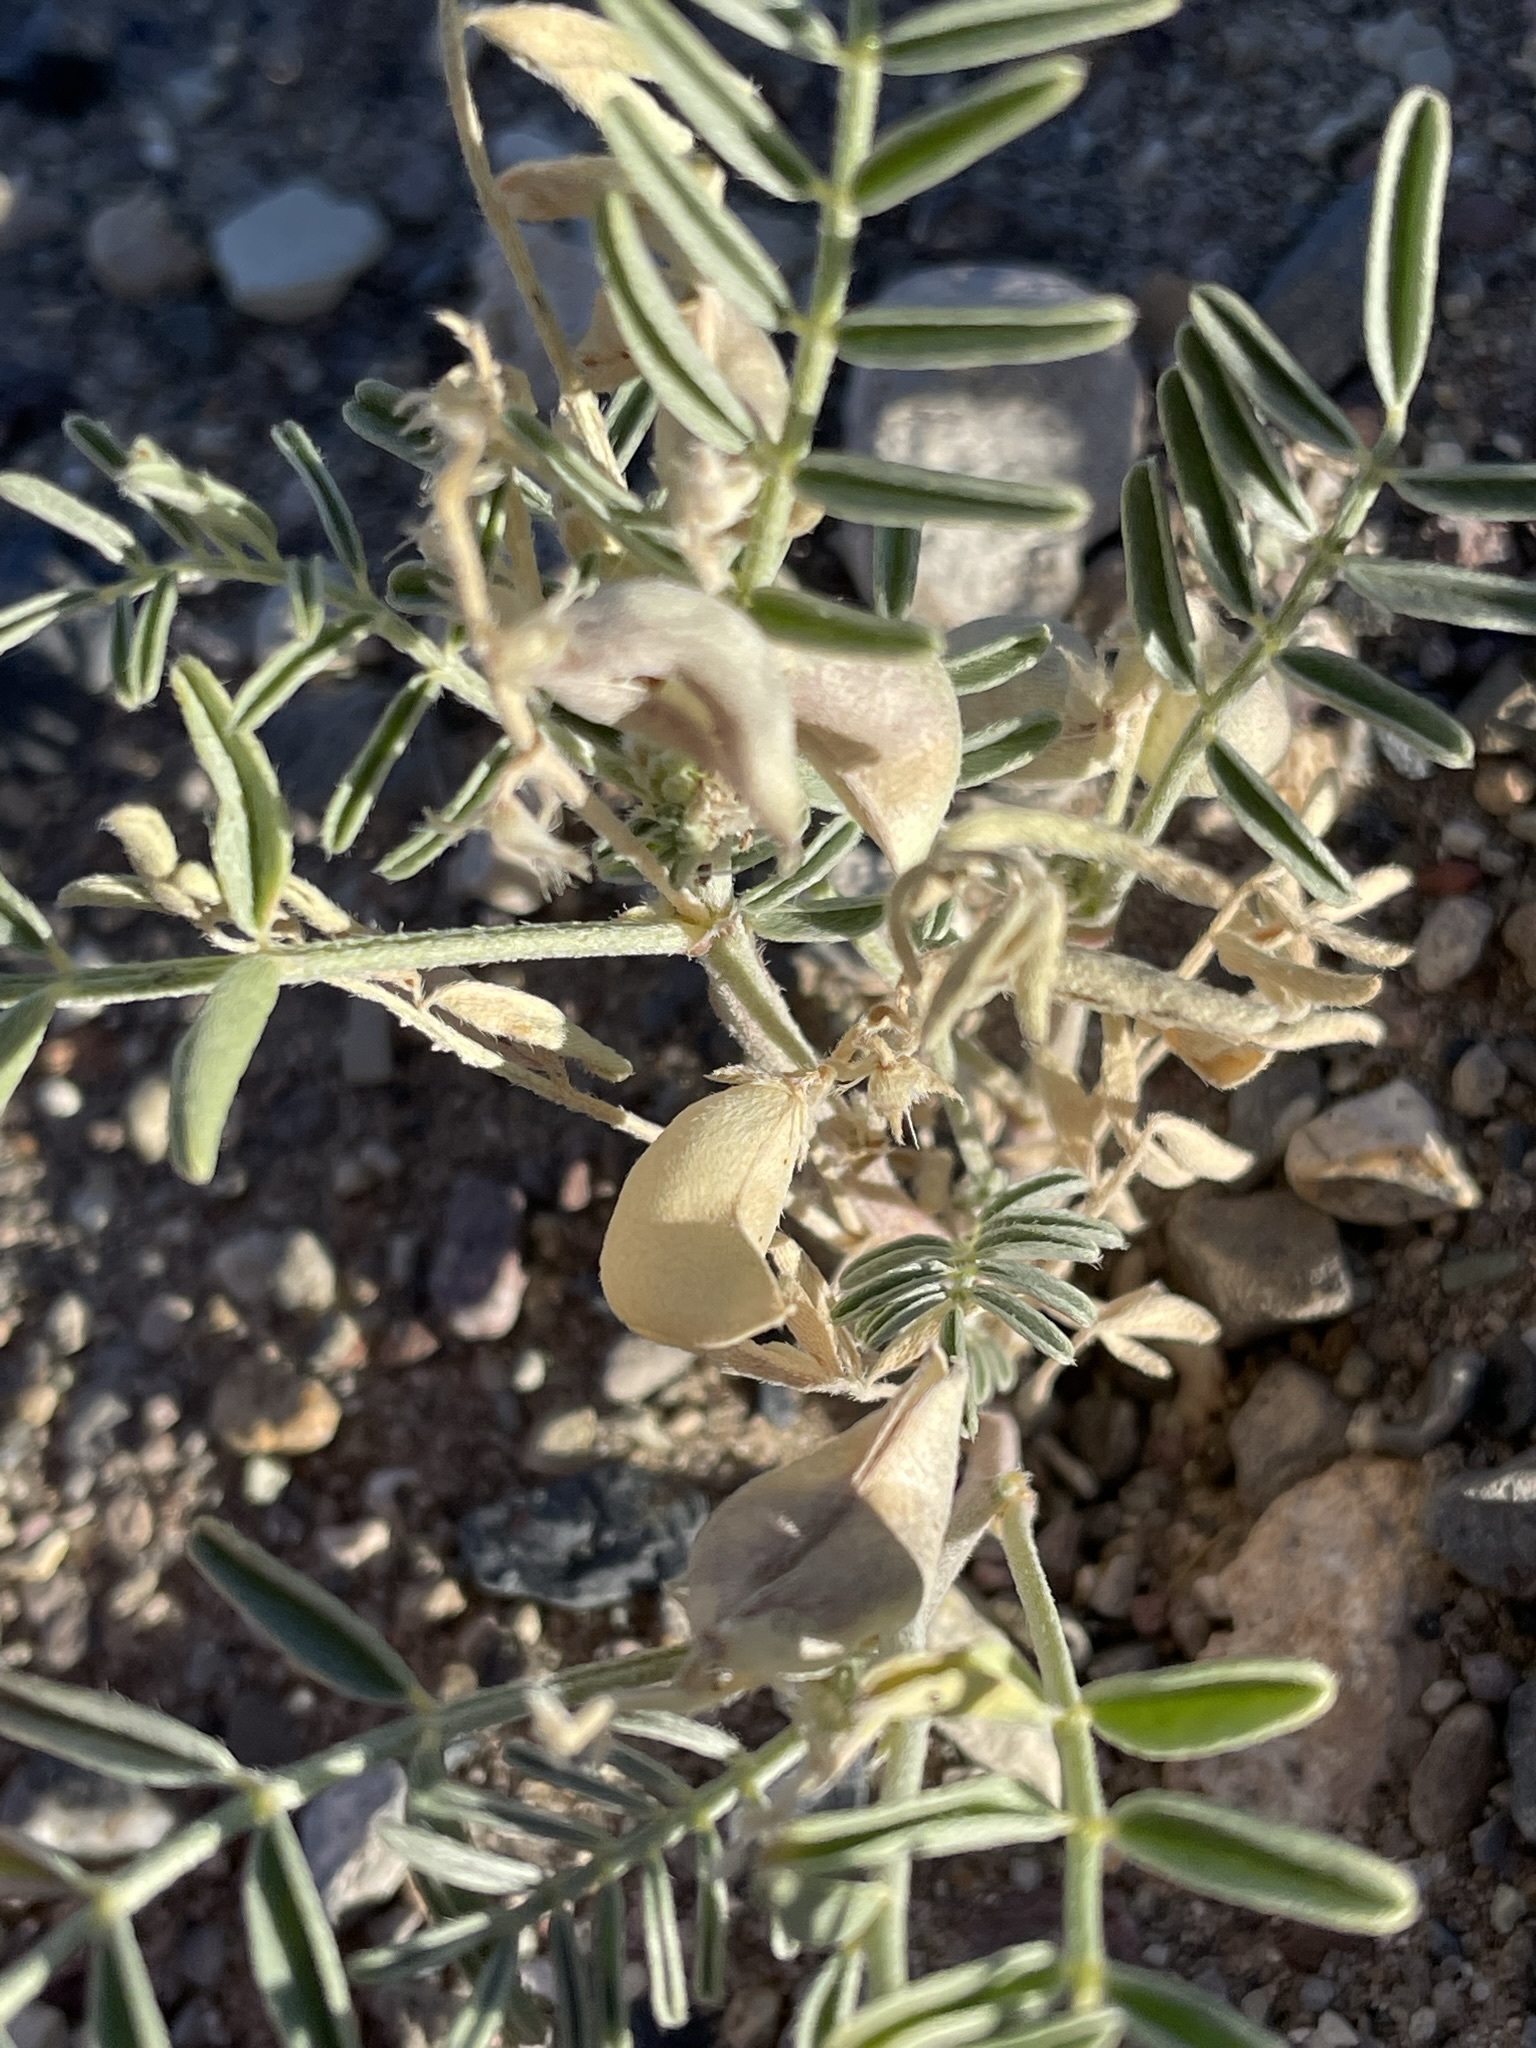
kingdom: Plantae
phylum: Tracheophyta
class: Magnoliopsida
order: Fabales
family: Fabaceae
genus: Astragalus
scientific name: Astragalus geyeri
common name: Geyer's milkvetch
